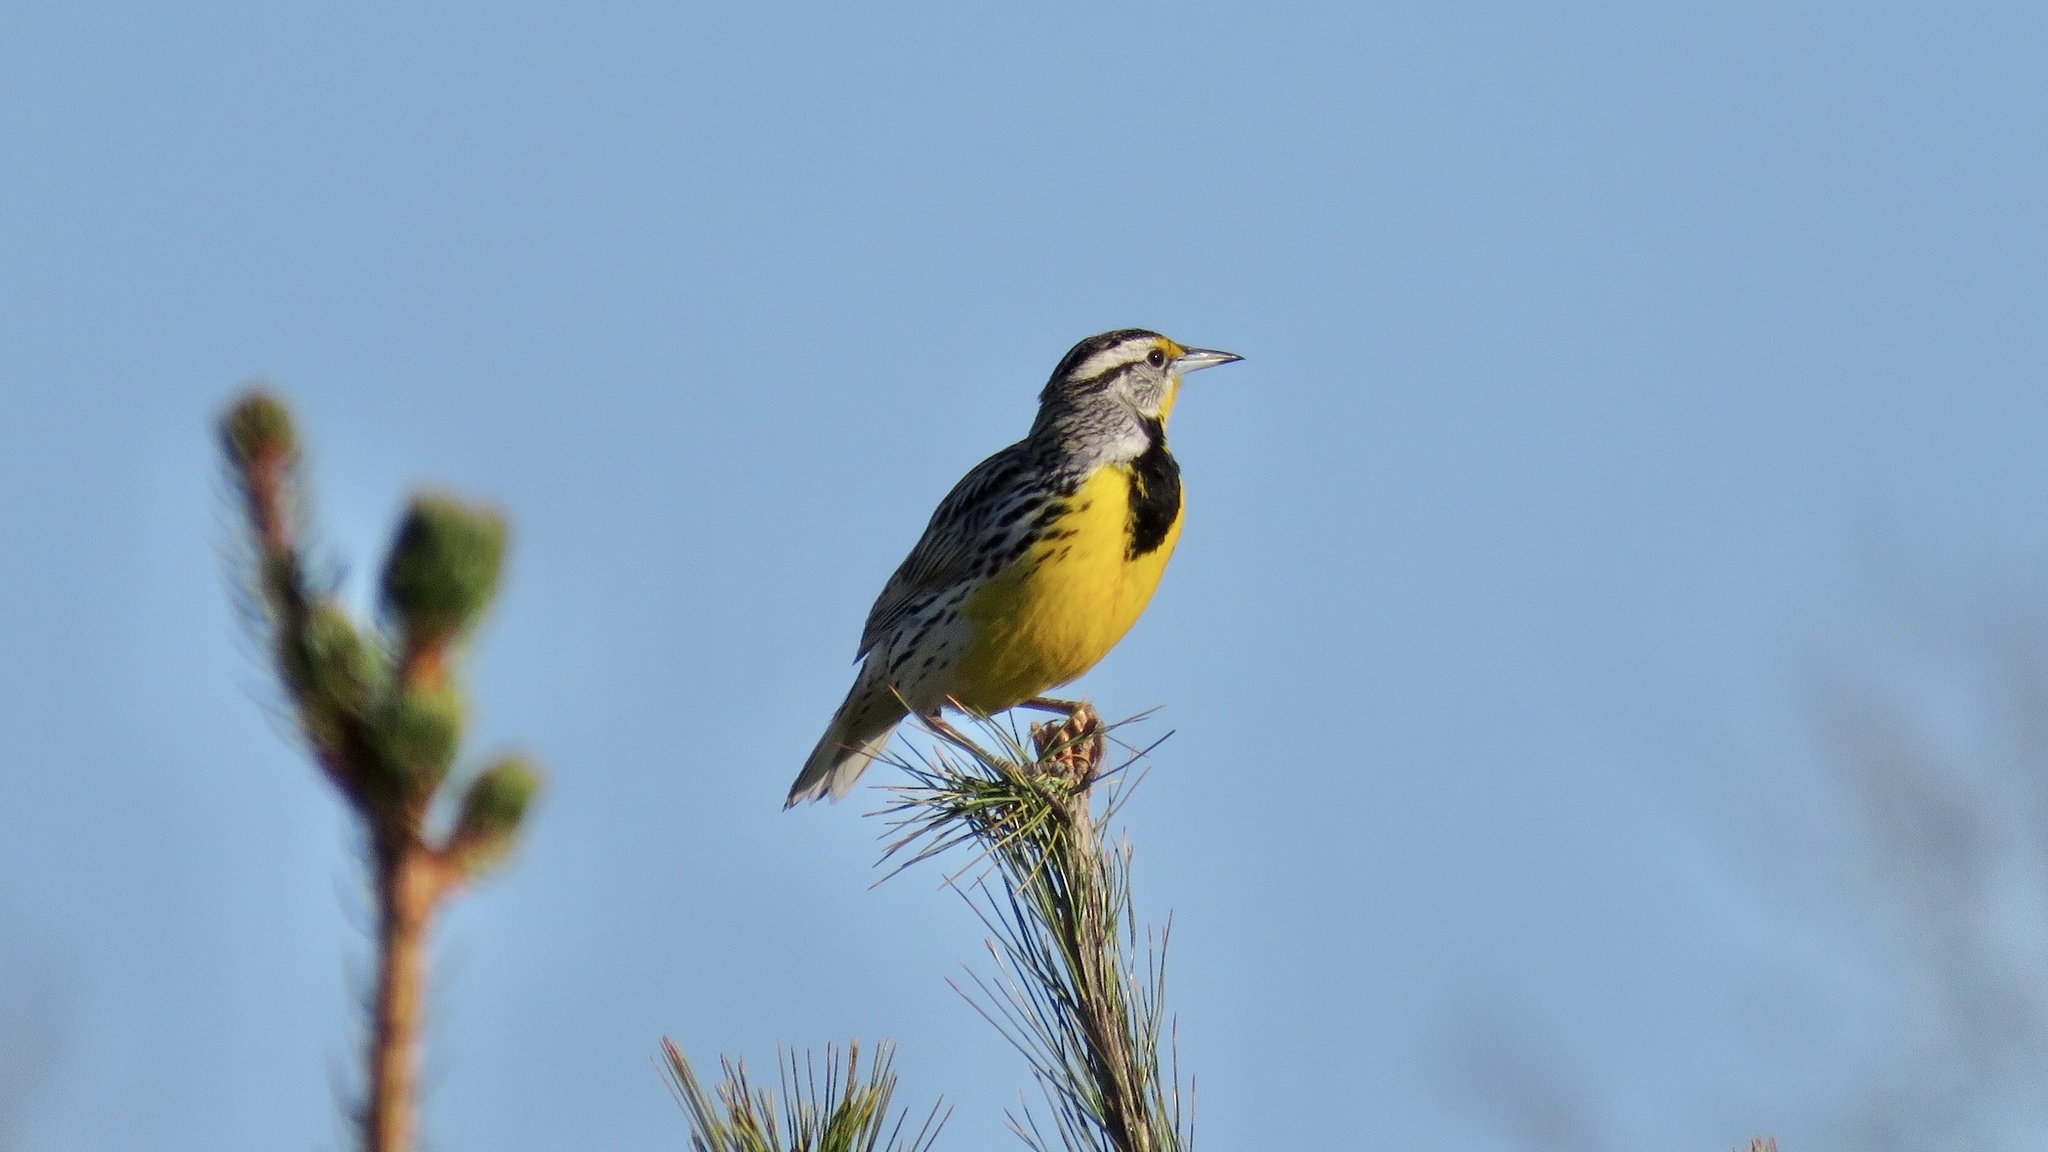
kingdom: Animalia
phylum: Chordata
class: Aves
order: Passeriformes
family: Icteridae
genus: Sturnella
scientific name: Sturnella magna
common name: Eastern meadowlark
